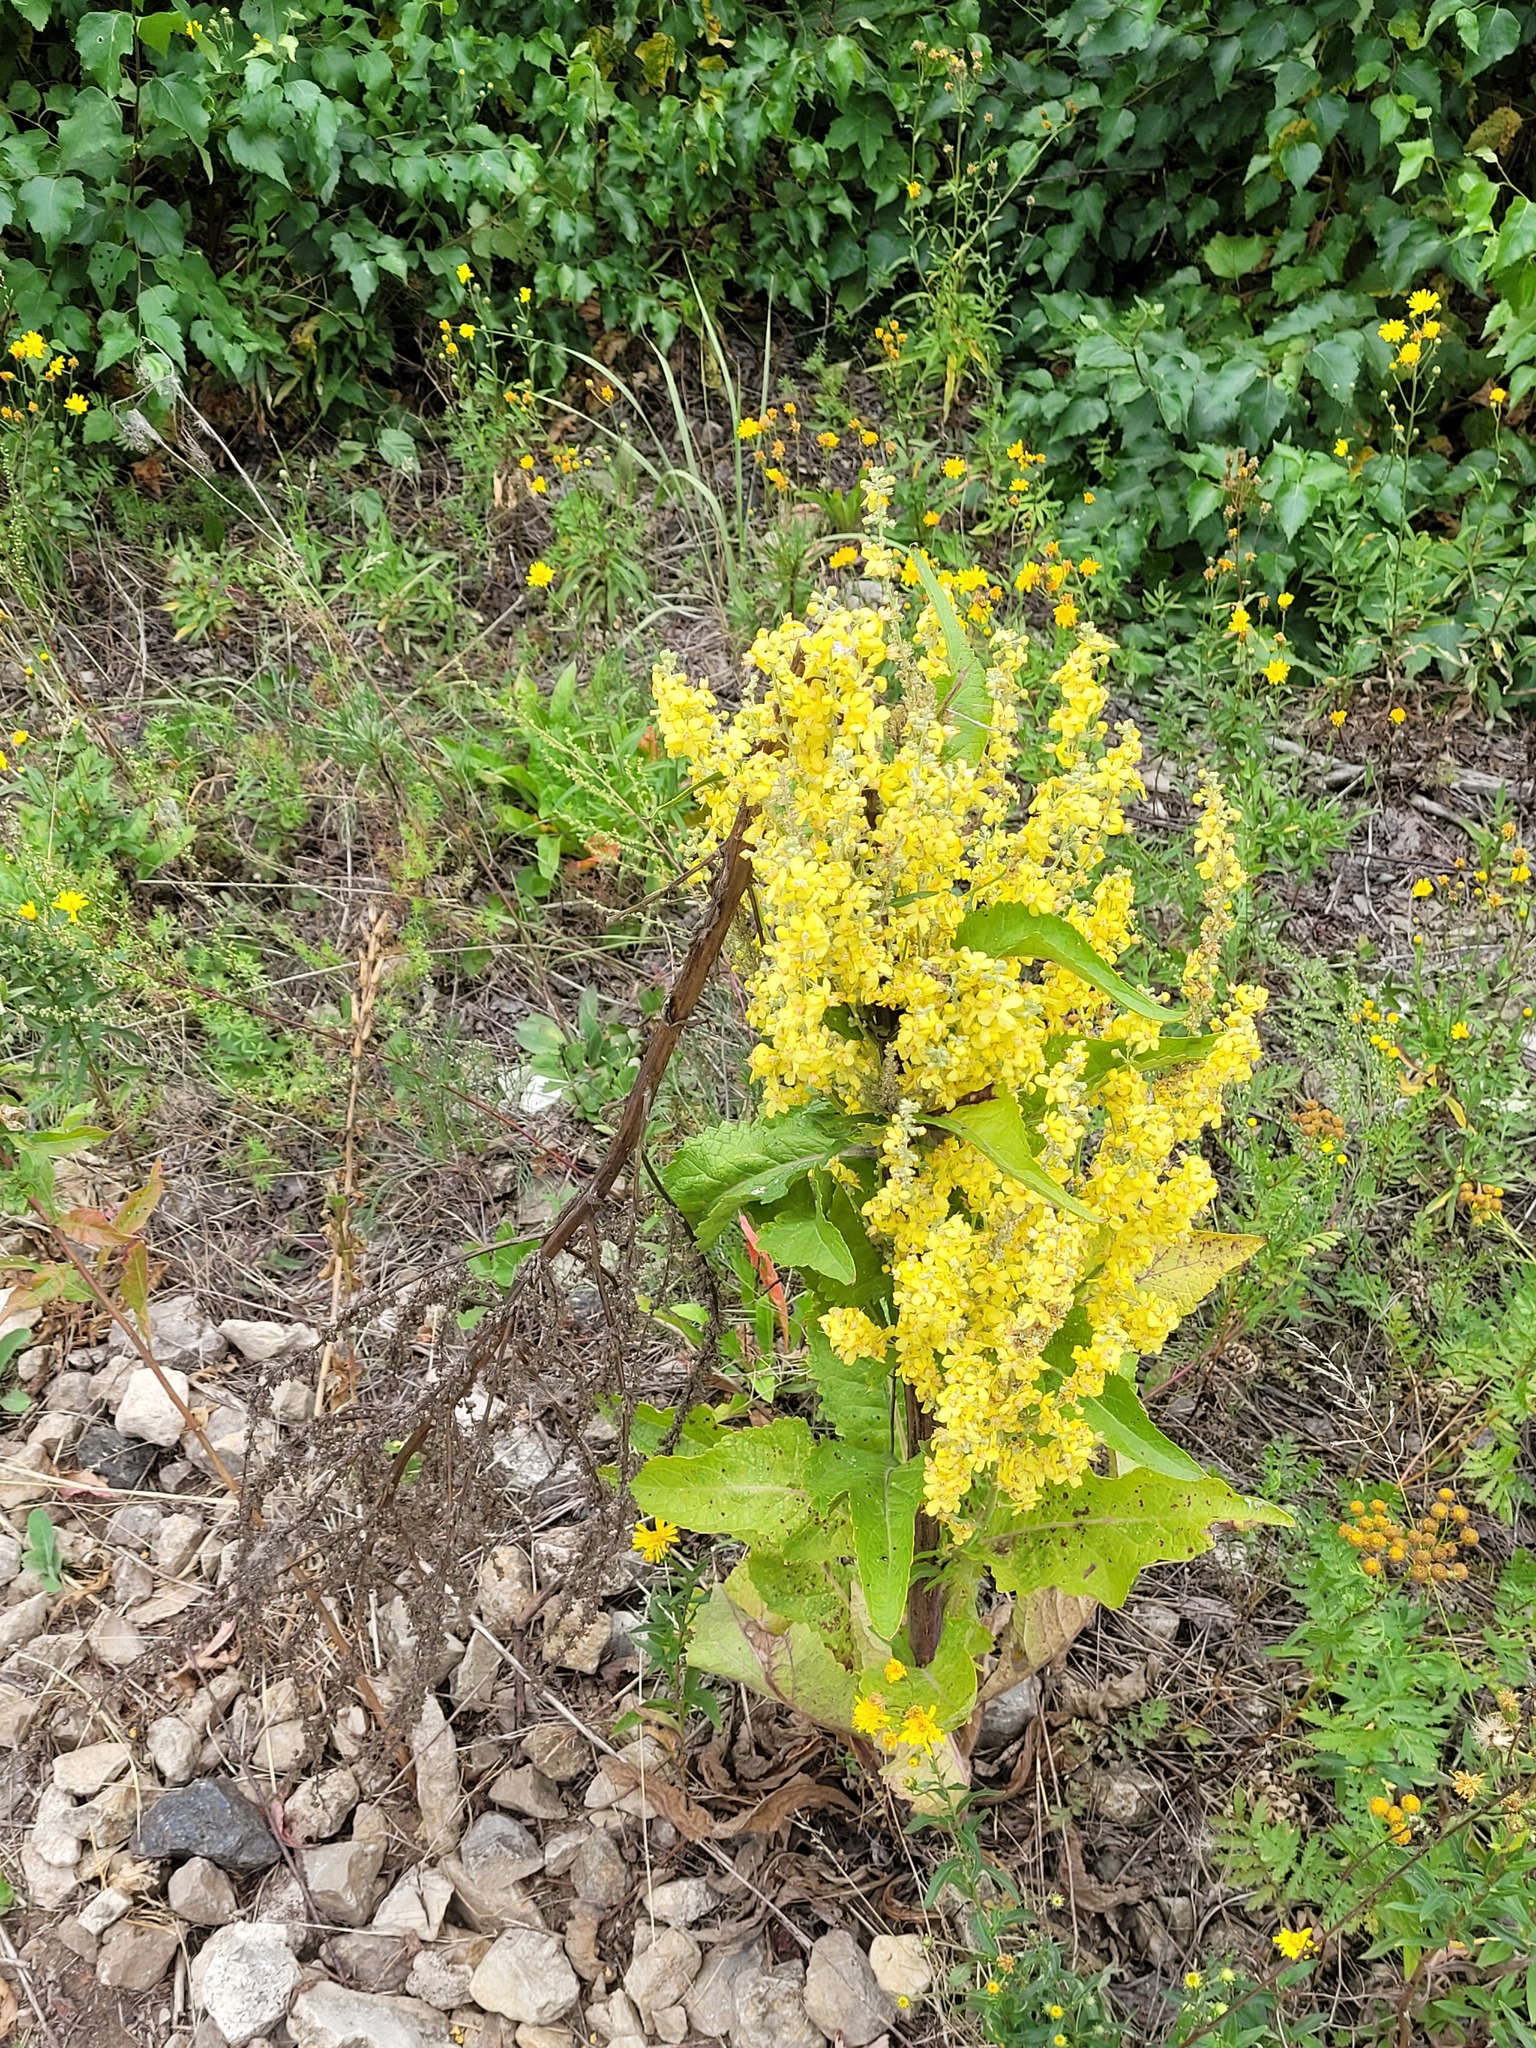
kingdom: Plantae
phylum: Tracheophyta
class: Magnoliopsida
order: Lamiales
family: Scrophulariaceae
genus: Verbascum
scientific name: Verbascum lychnitis
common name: White mullein
